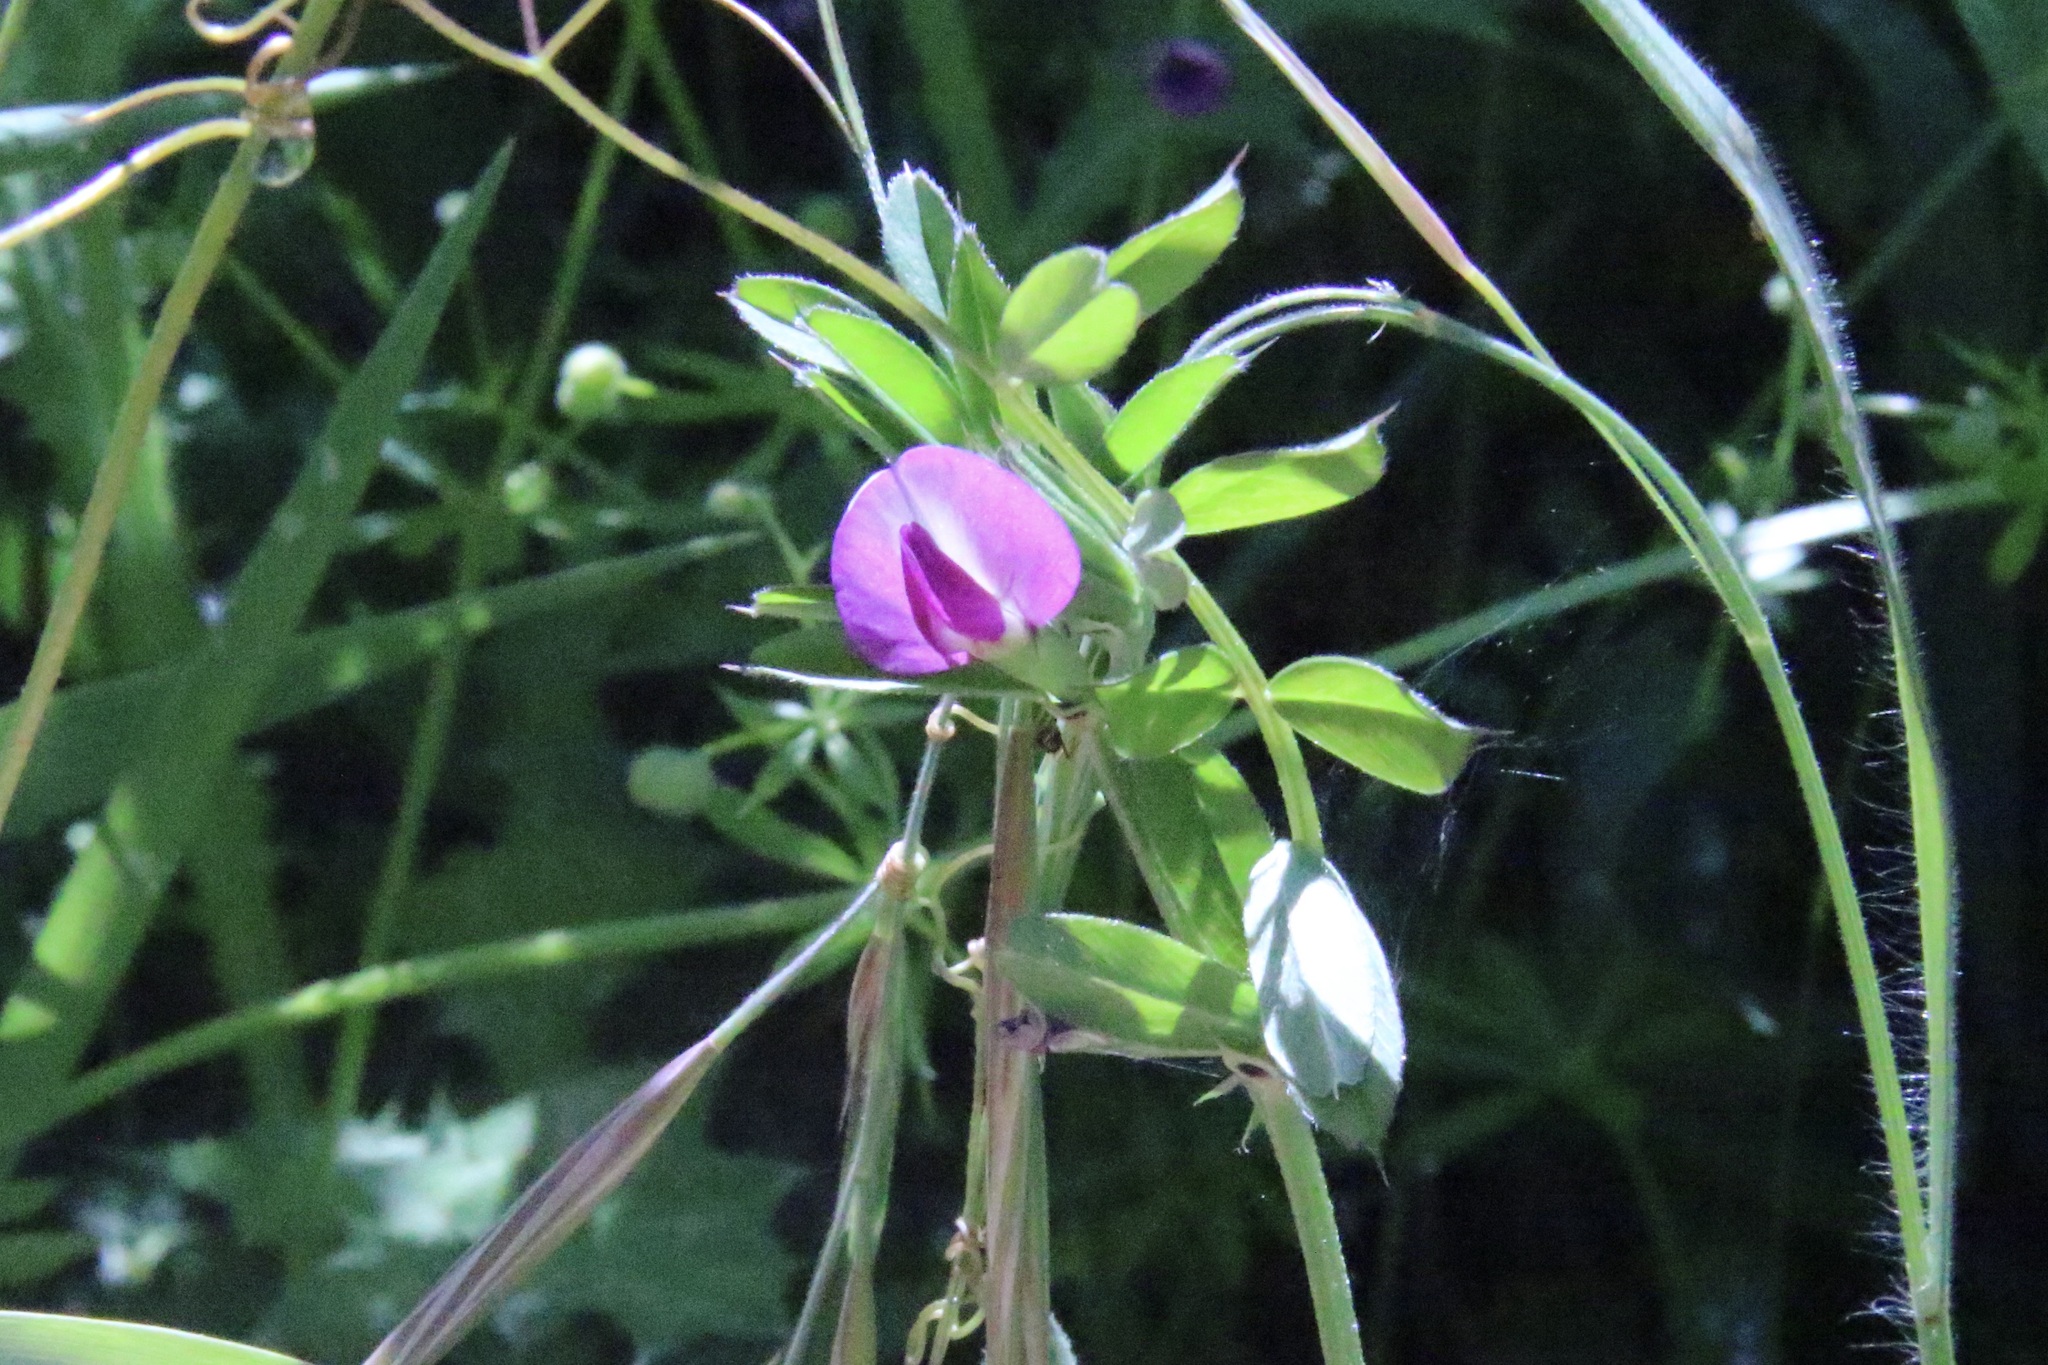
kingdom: Plantae
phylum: Tracheophyta
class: Magnoliopsida
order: Fabales
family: Fabaceae
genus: Vicia
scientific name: Vicia sativa
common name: Garden vetch
